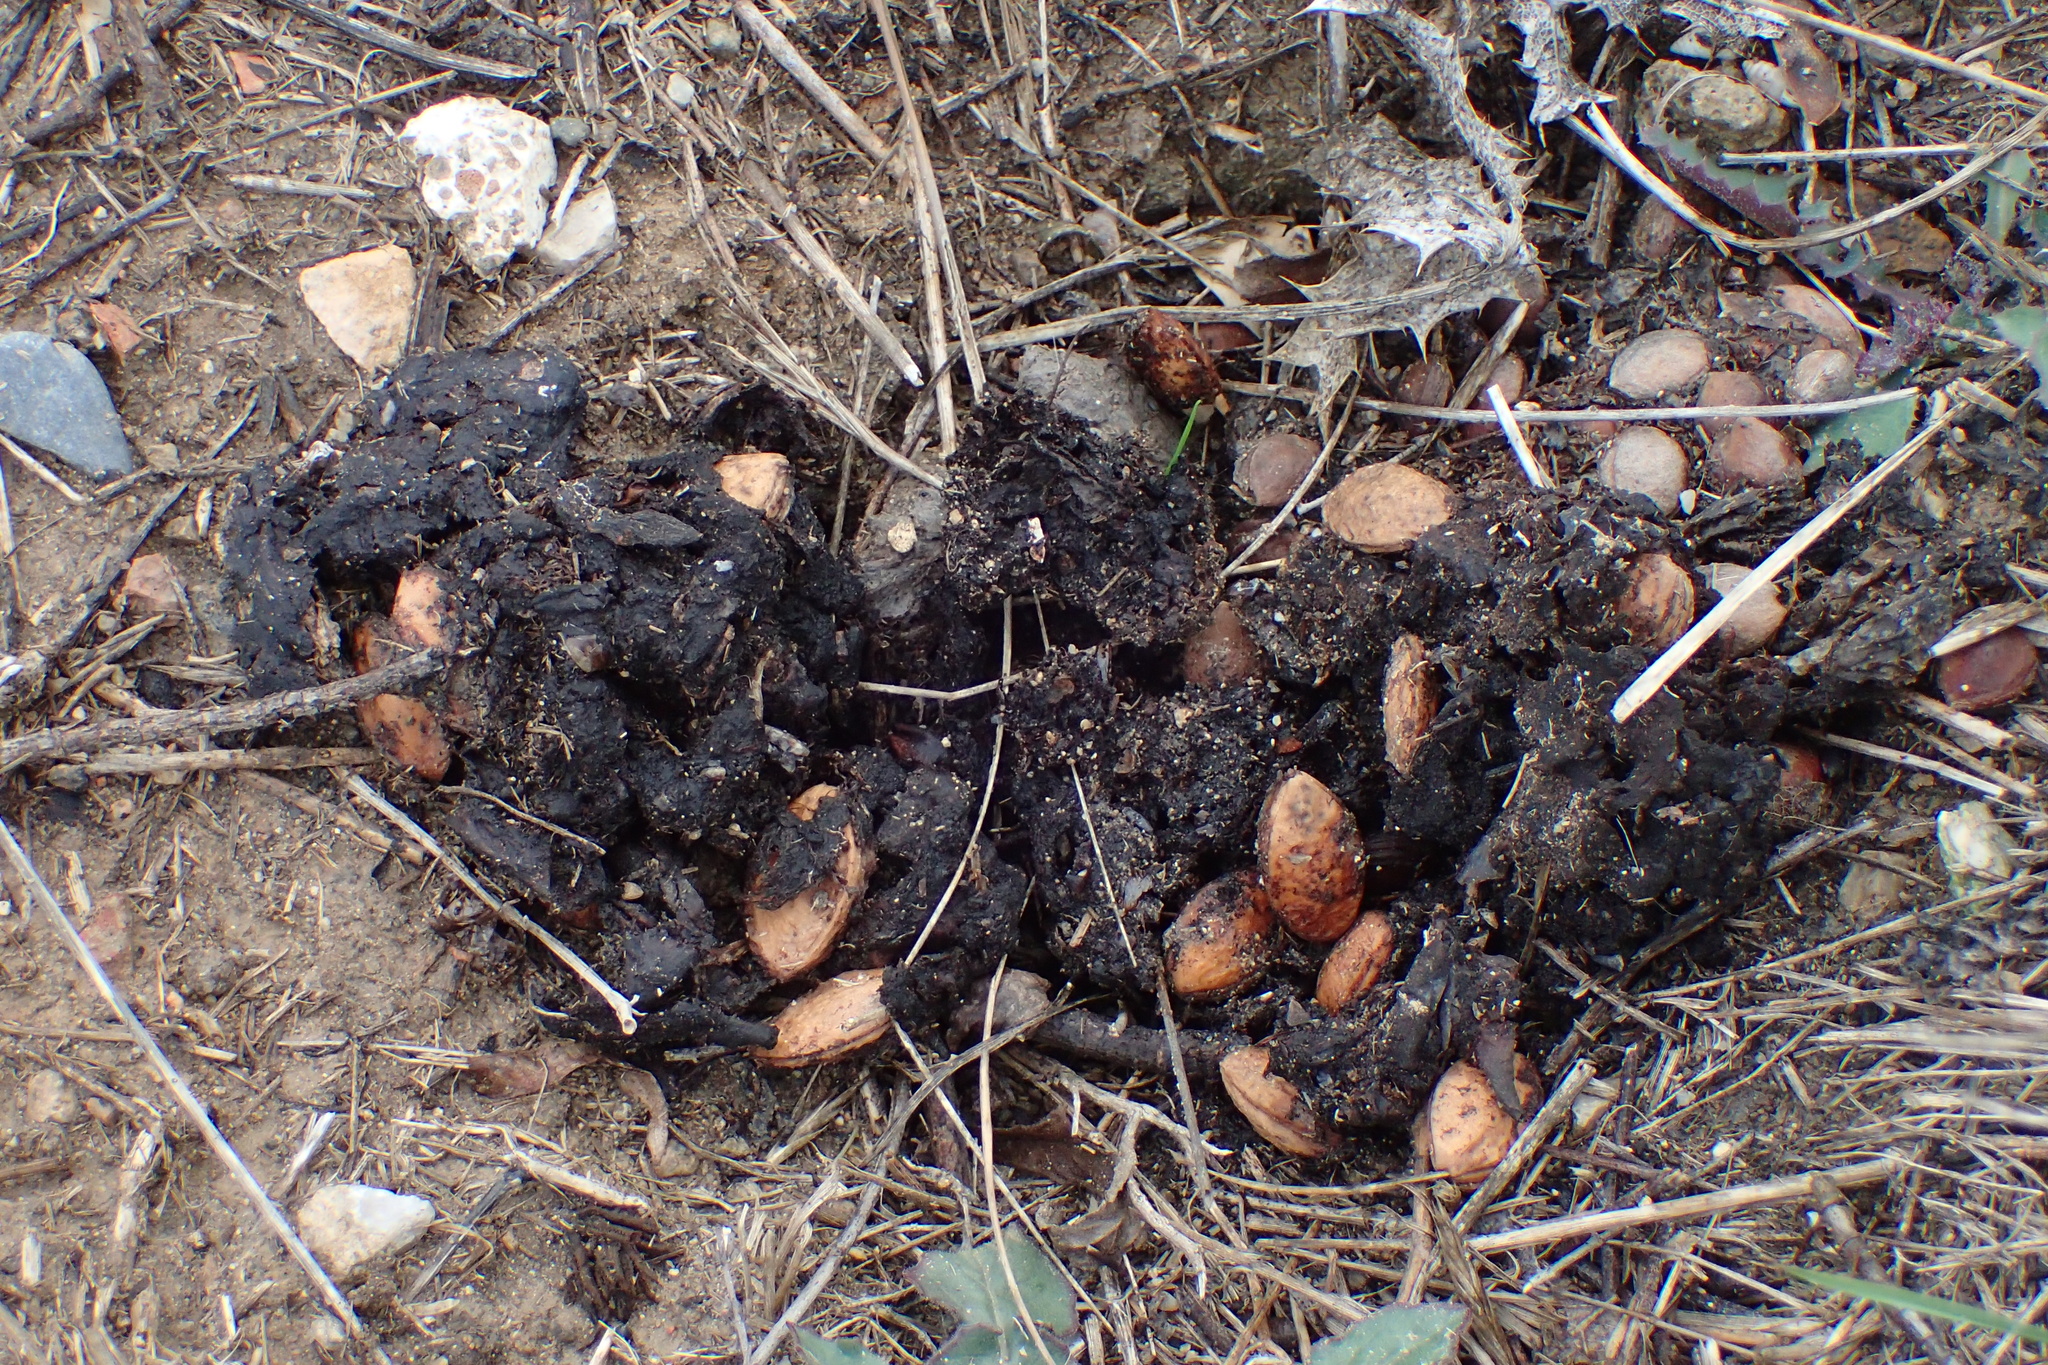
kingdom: Animalia
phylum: Chordata
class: Mammalia
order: Artiodactyla
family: Suidae
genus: Sus
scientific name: Sus scrofa
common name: Wild boar
